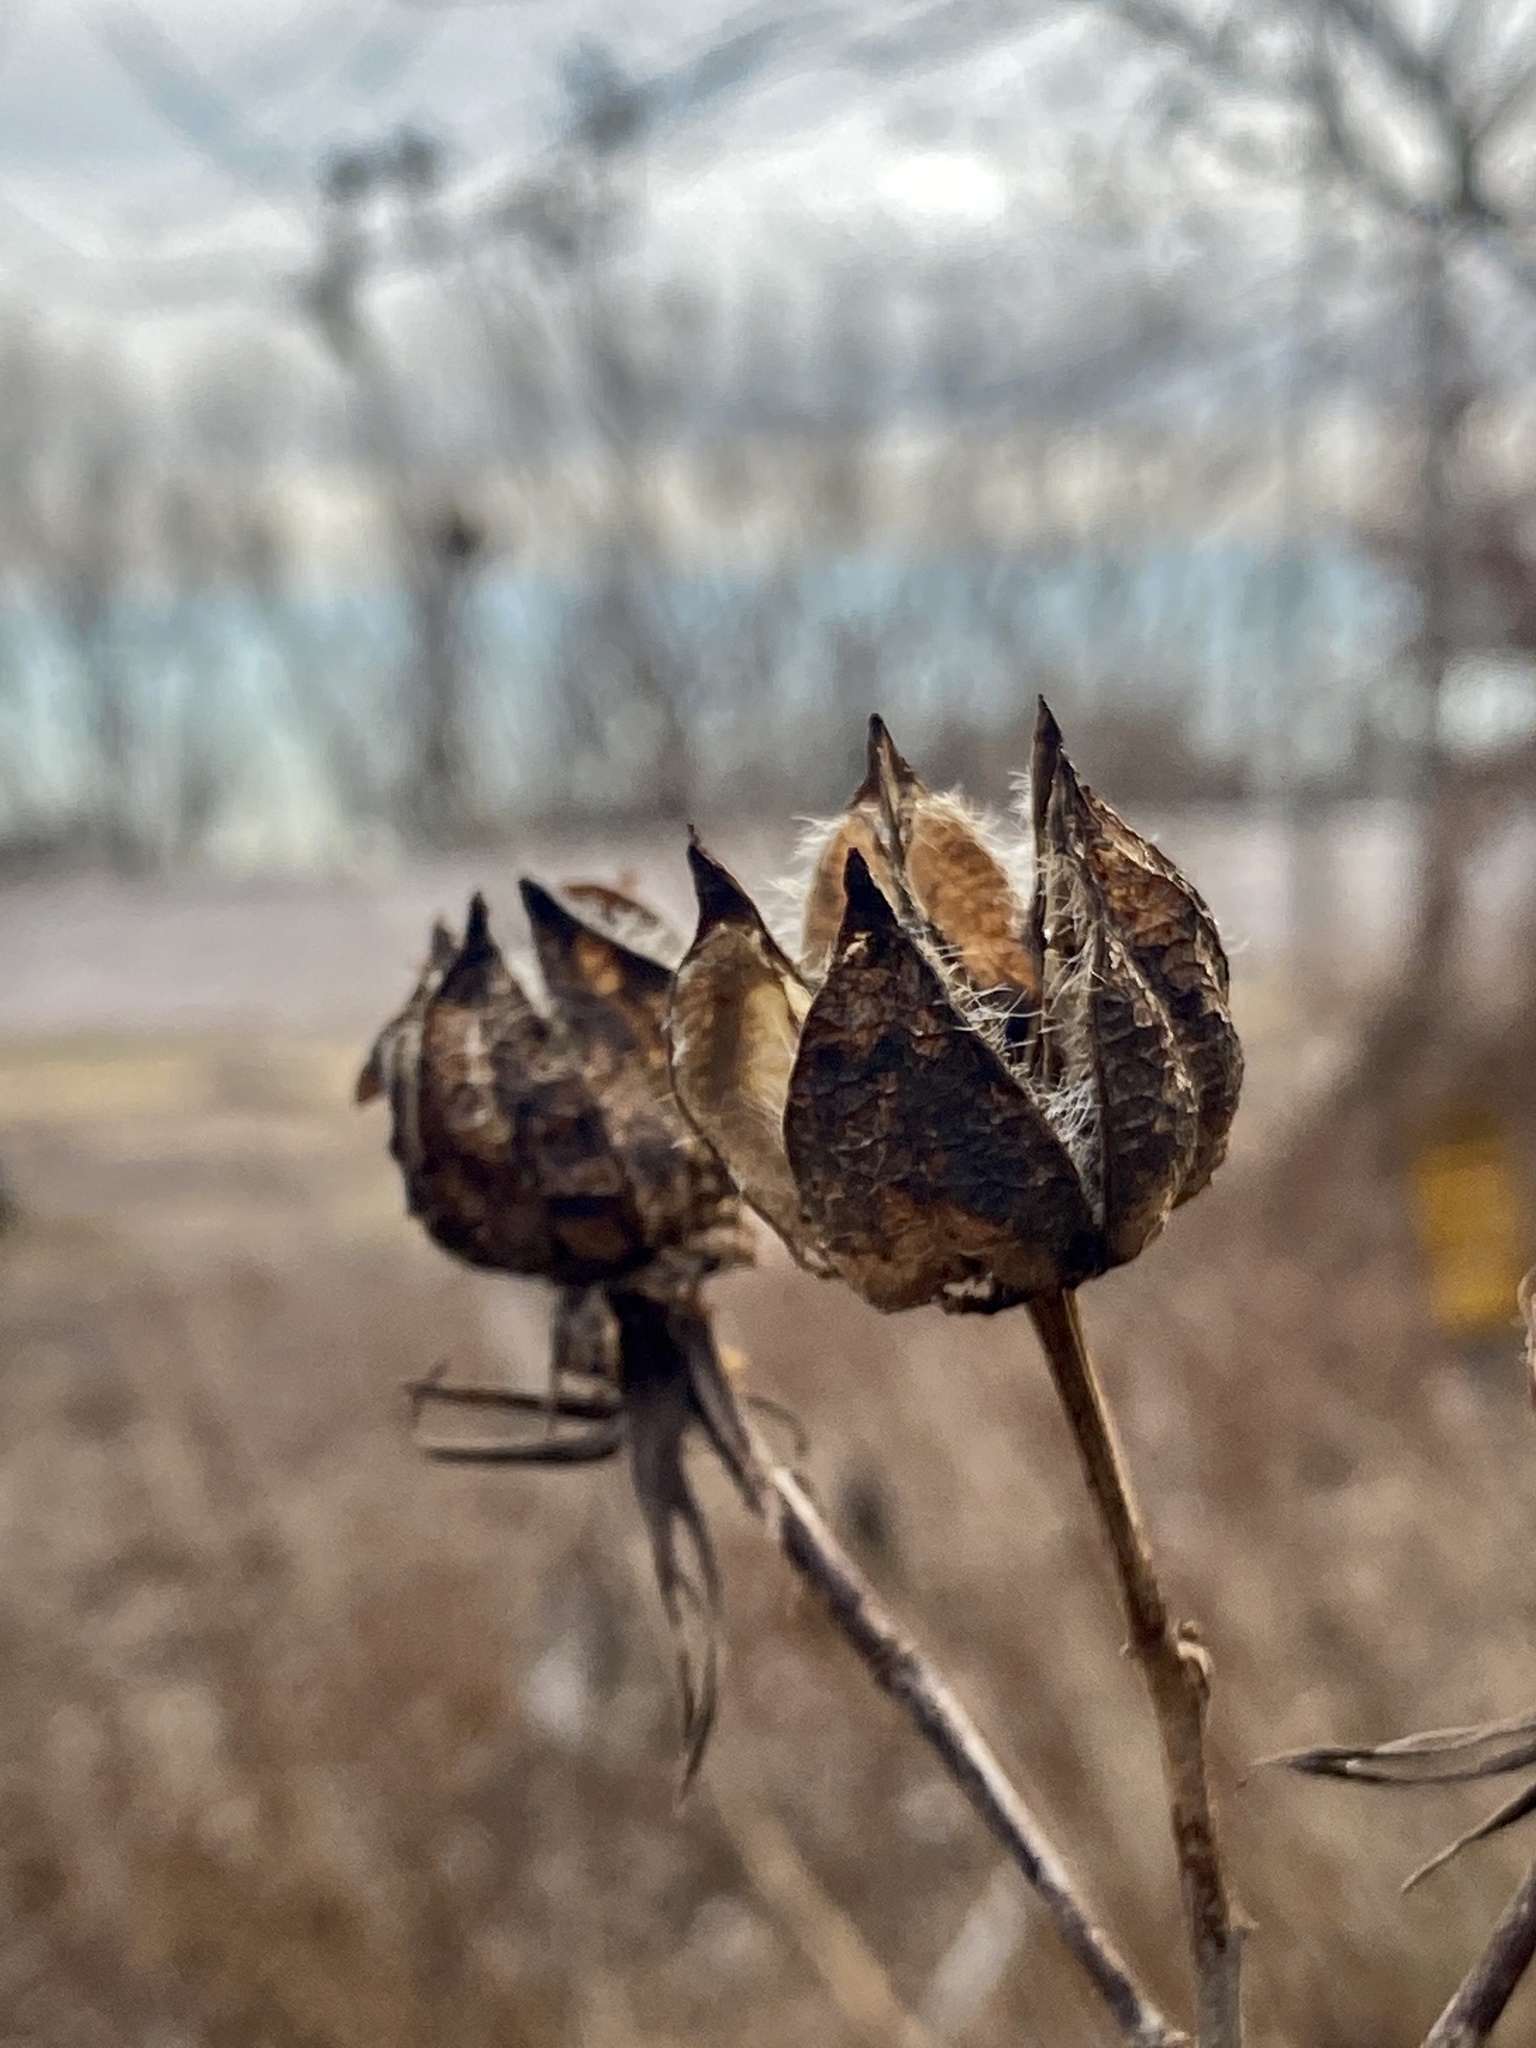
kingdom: Plantae
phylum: Tracheophyta
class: Magnoliopsida
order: Malvales
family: Malvaceae
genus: Hibiscus
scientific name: Hibiscus moscheutos
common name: Common rose-mallow
